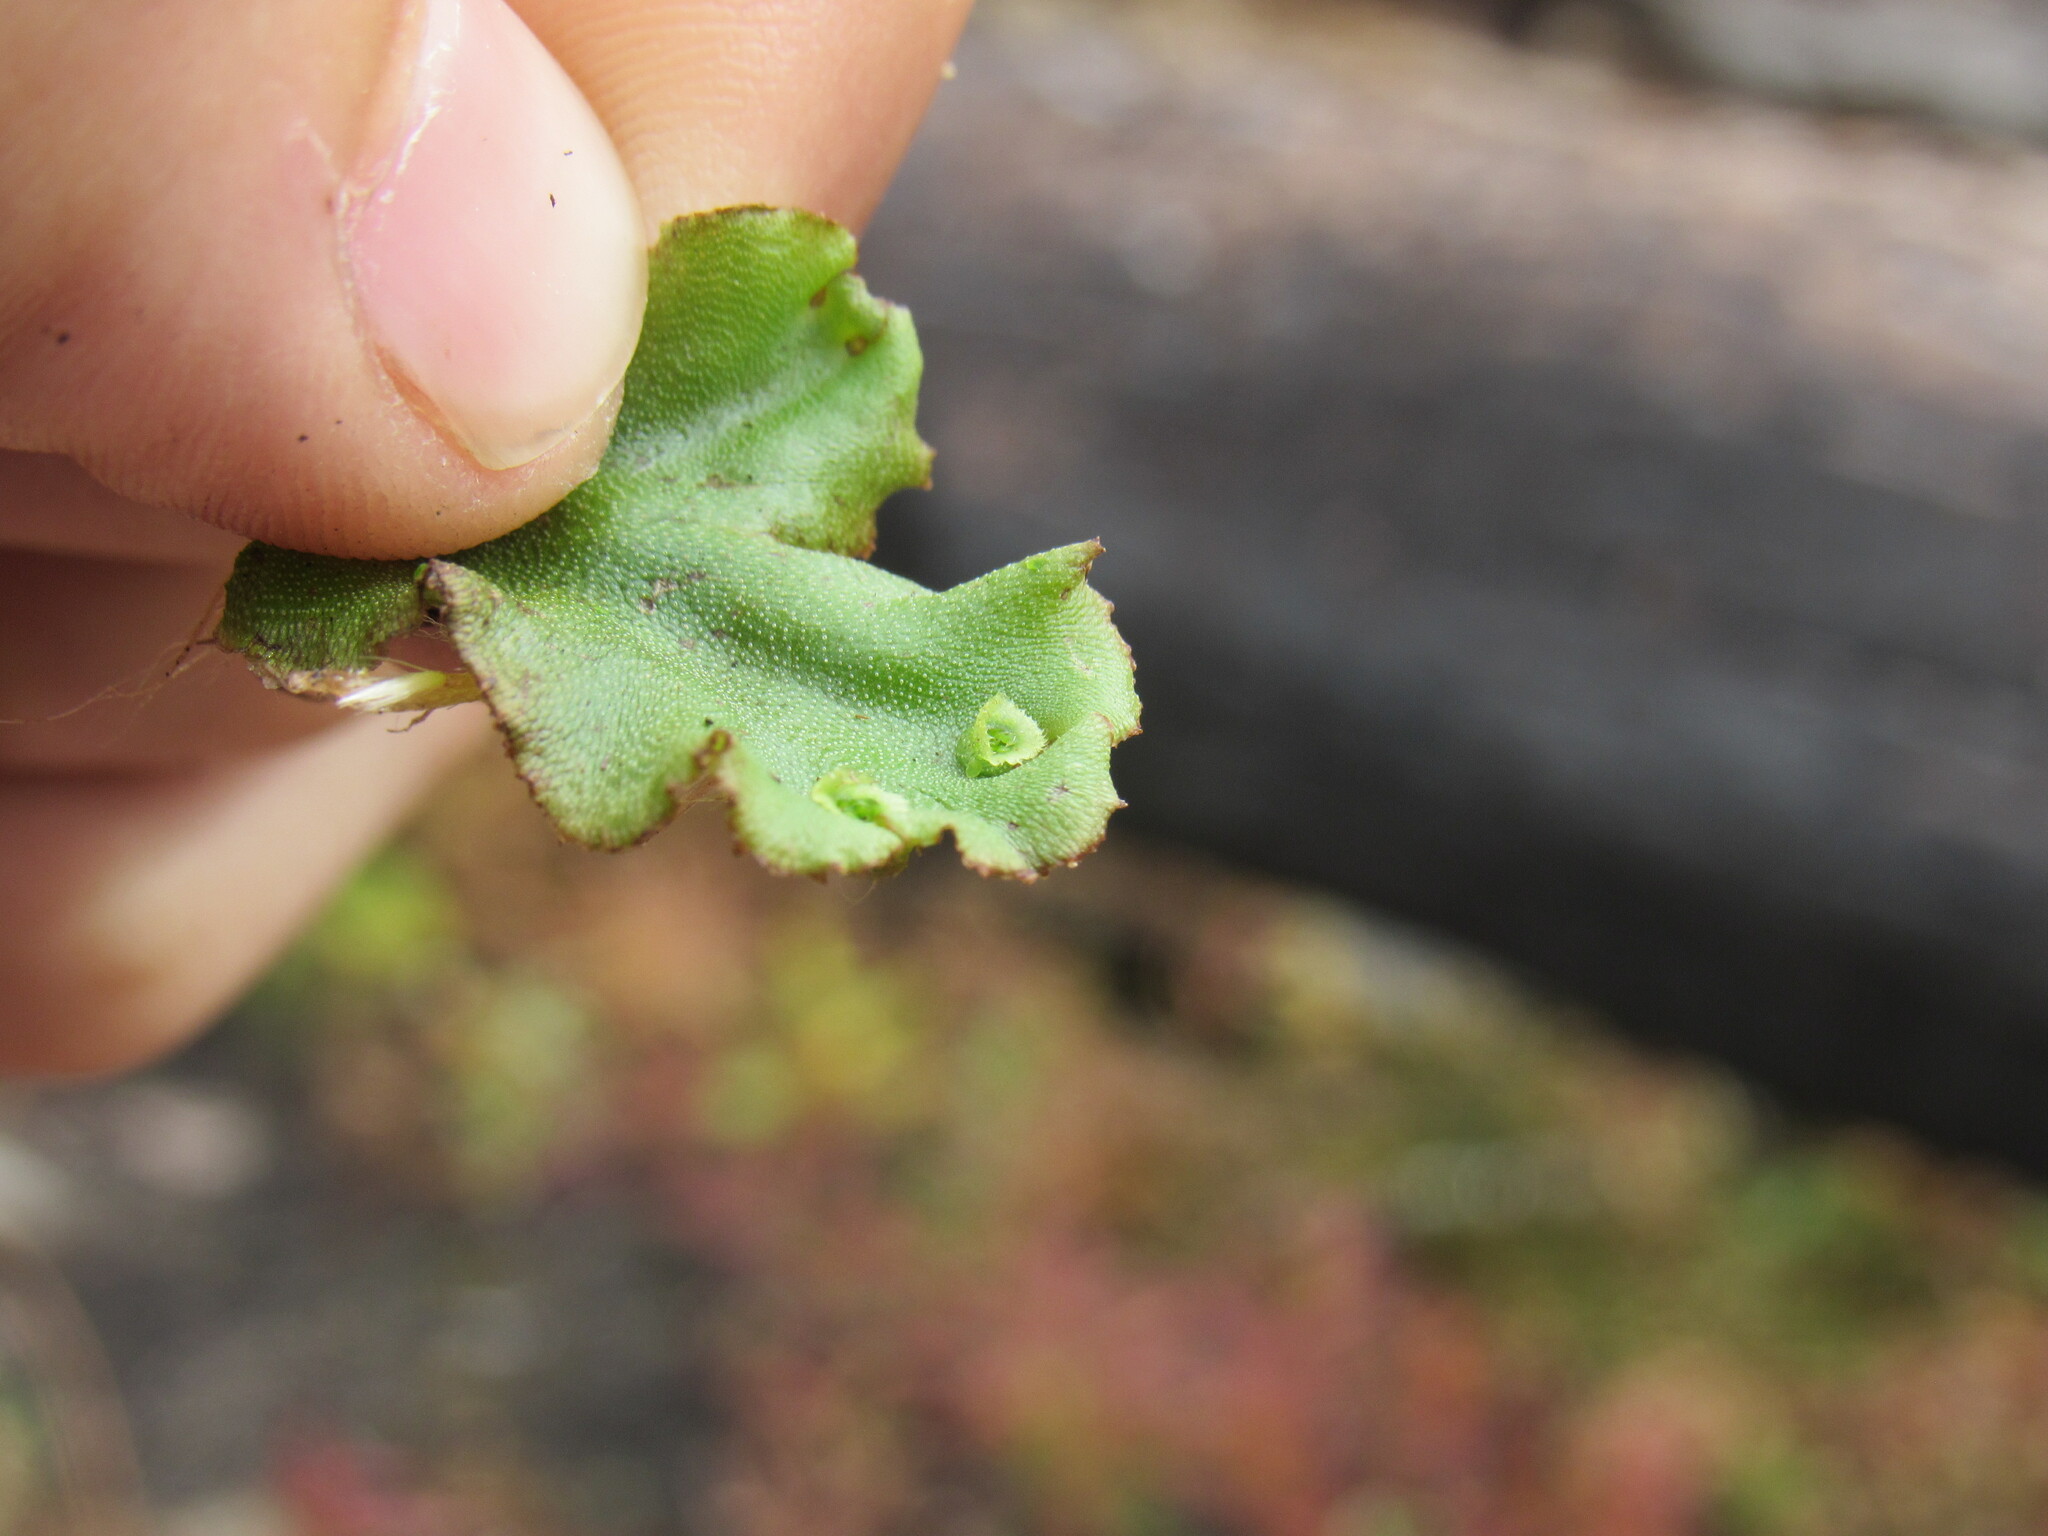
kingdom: Plantae
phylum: Marchantiophyta
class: Marchantiopsida
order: Marchantiales
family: Marchantiaceae
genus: Marchantia
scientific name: Marchantia polymorpha
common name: Common liverwort
